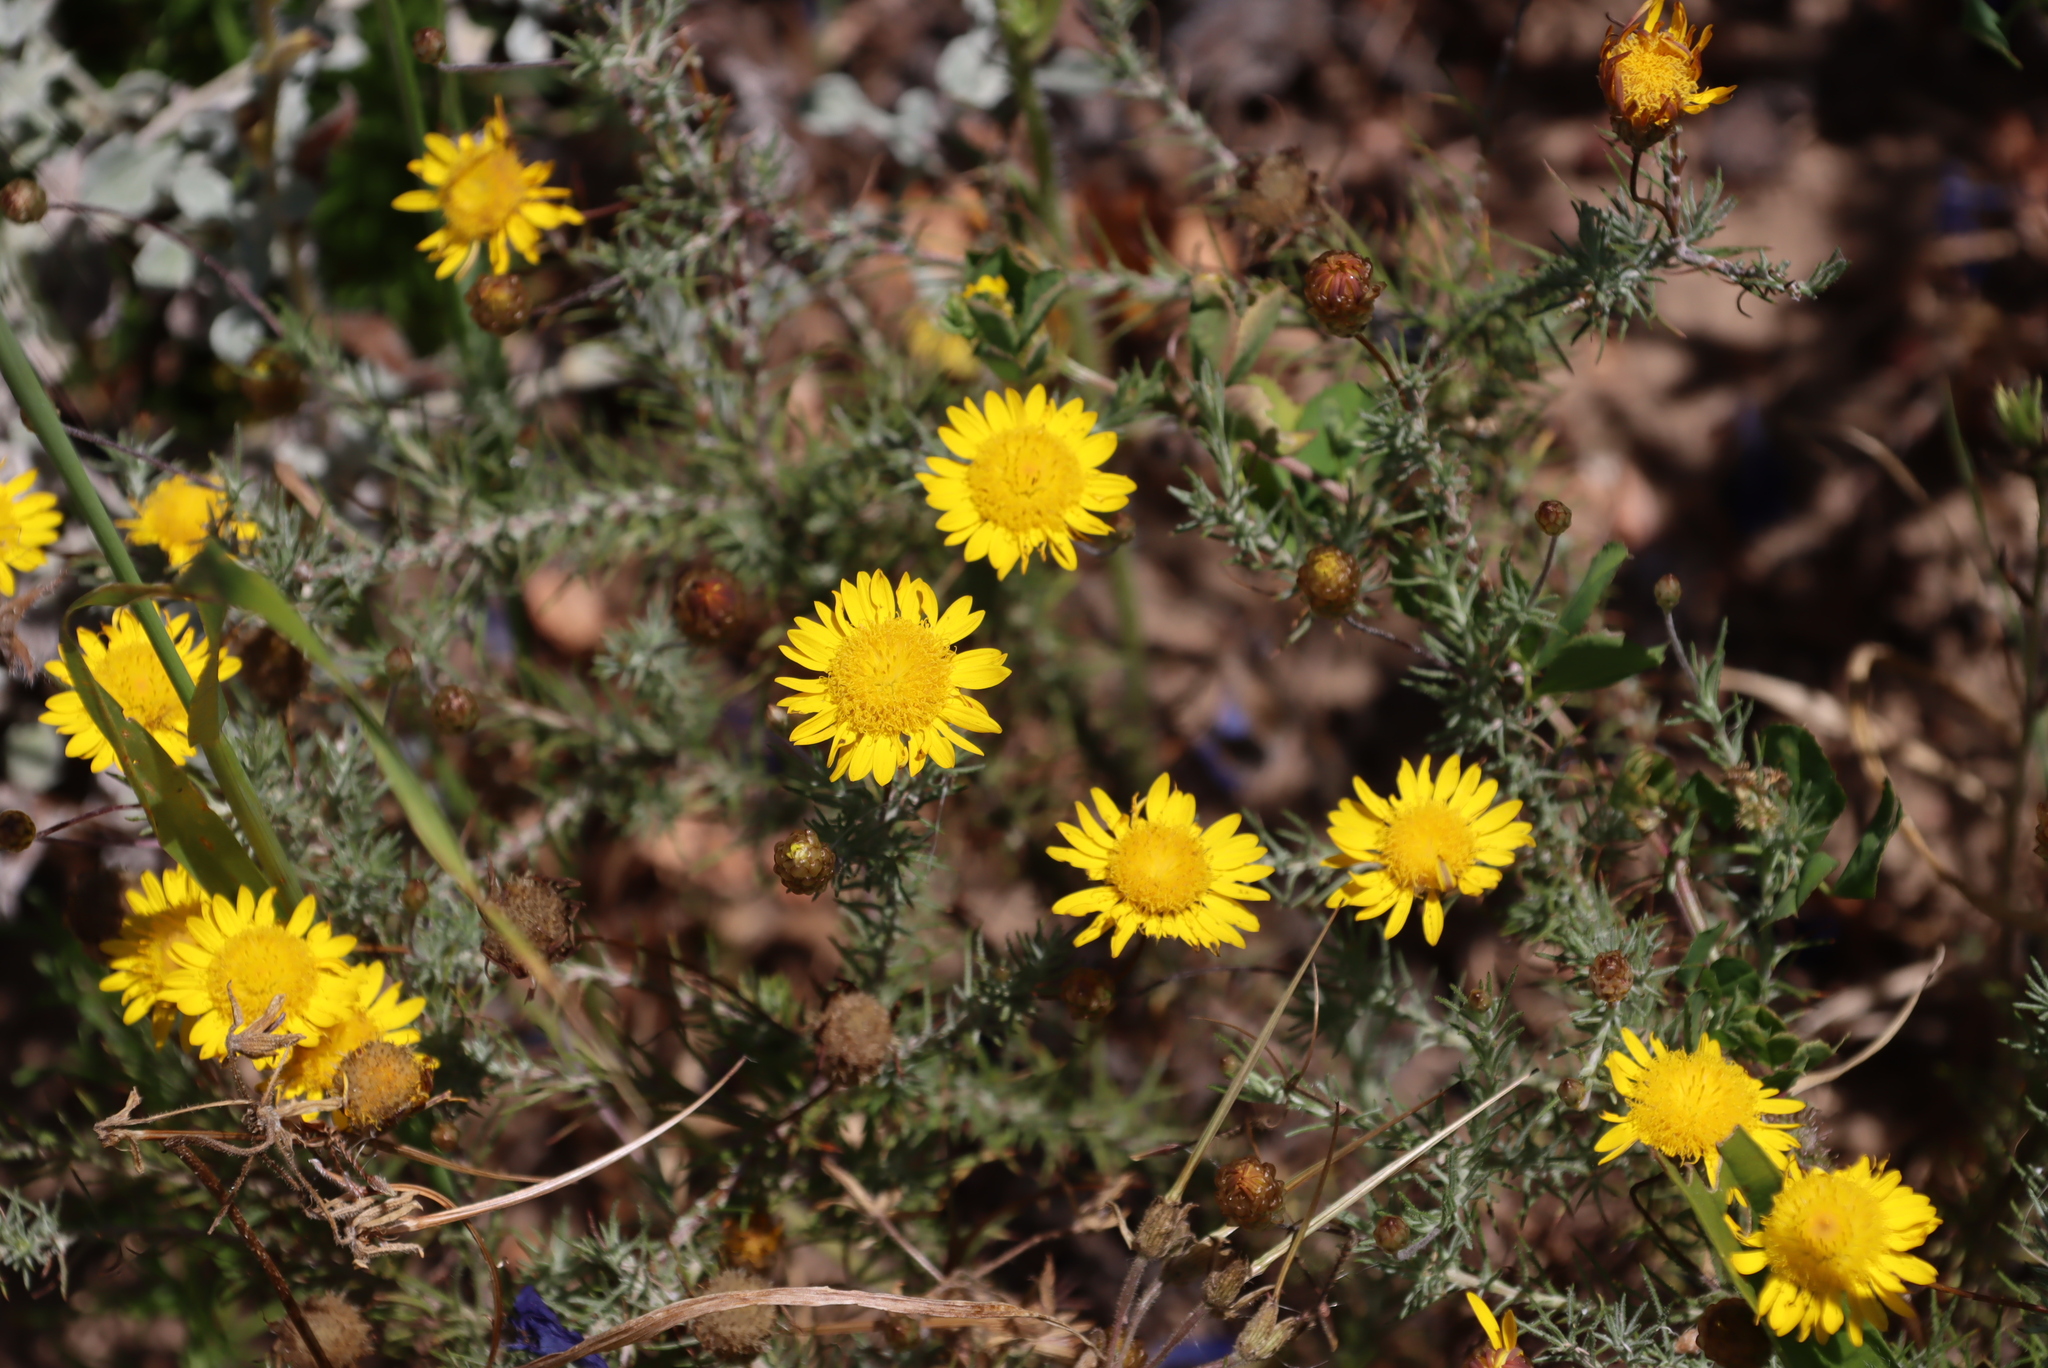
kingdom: Plantae
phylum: Tracheophyta
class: Magnoliopsida
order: Asterales
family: Asteraceae
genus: Leysera
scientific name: Leysera gnaphalodes
